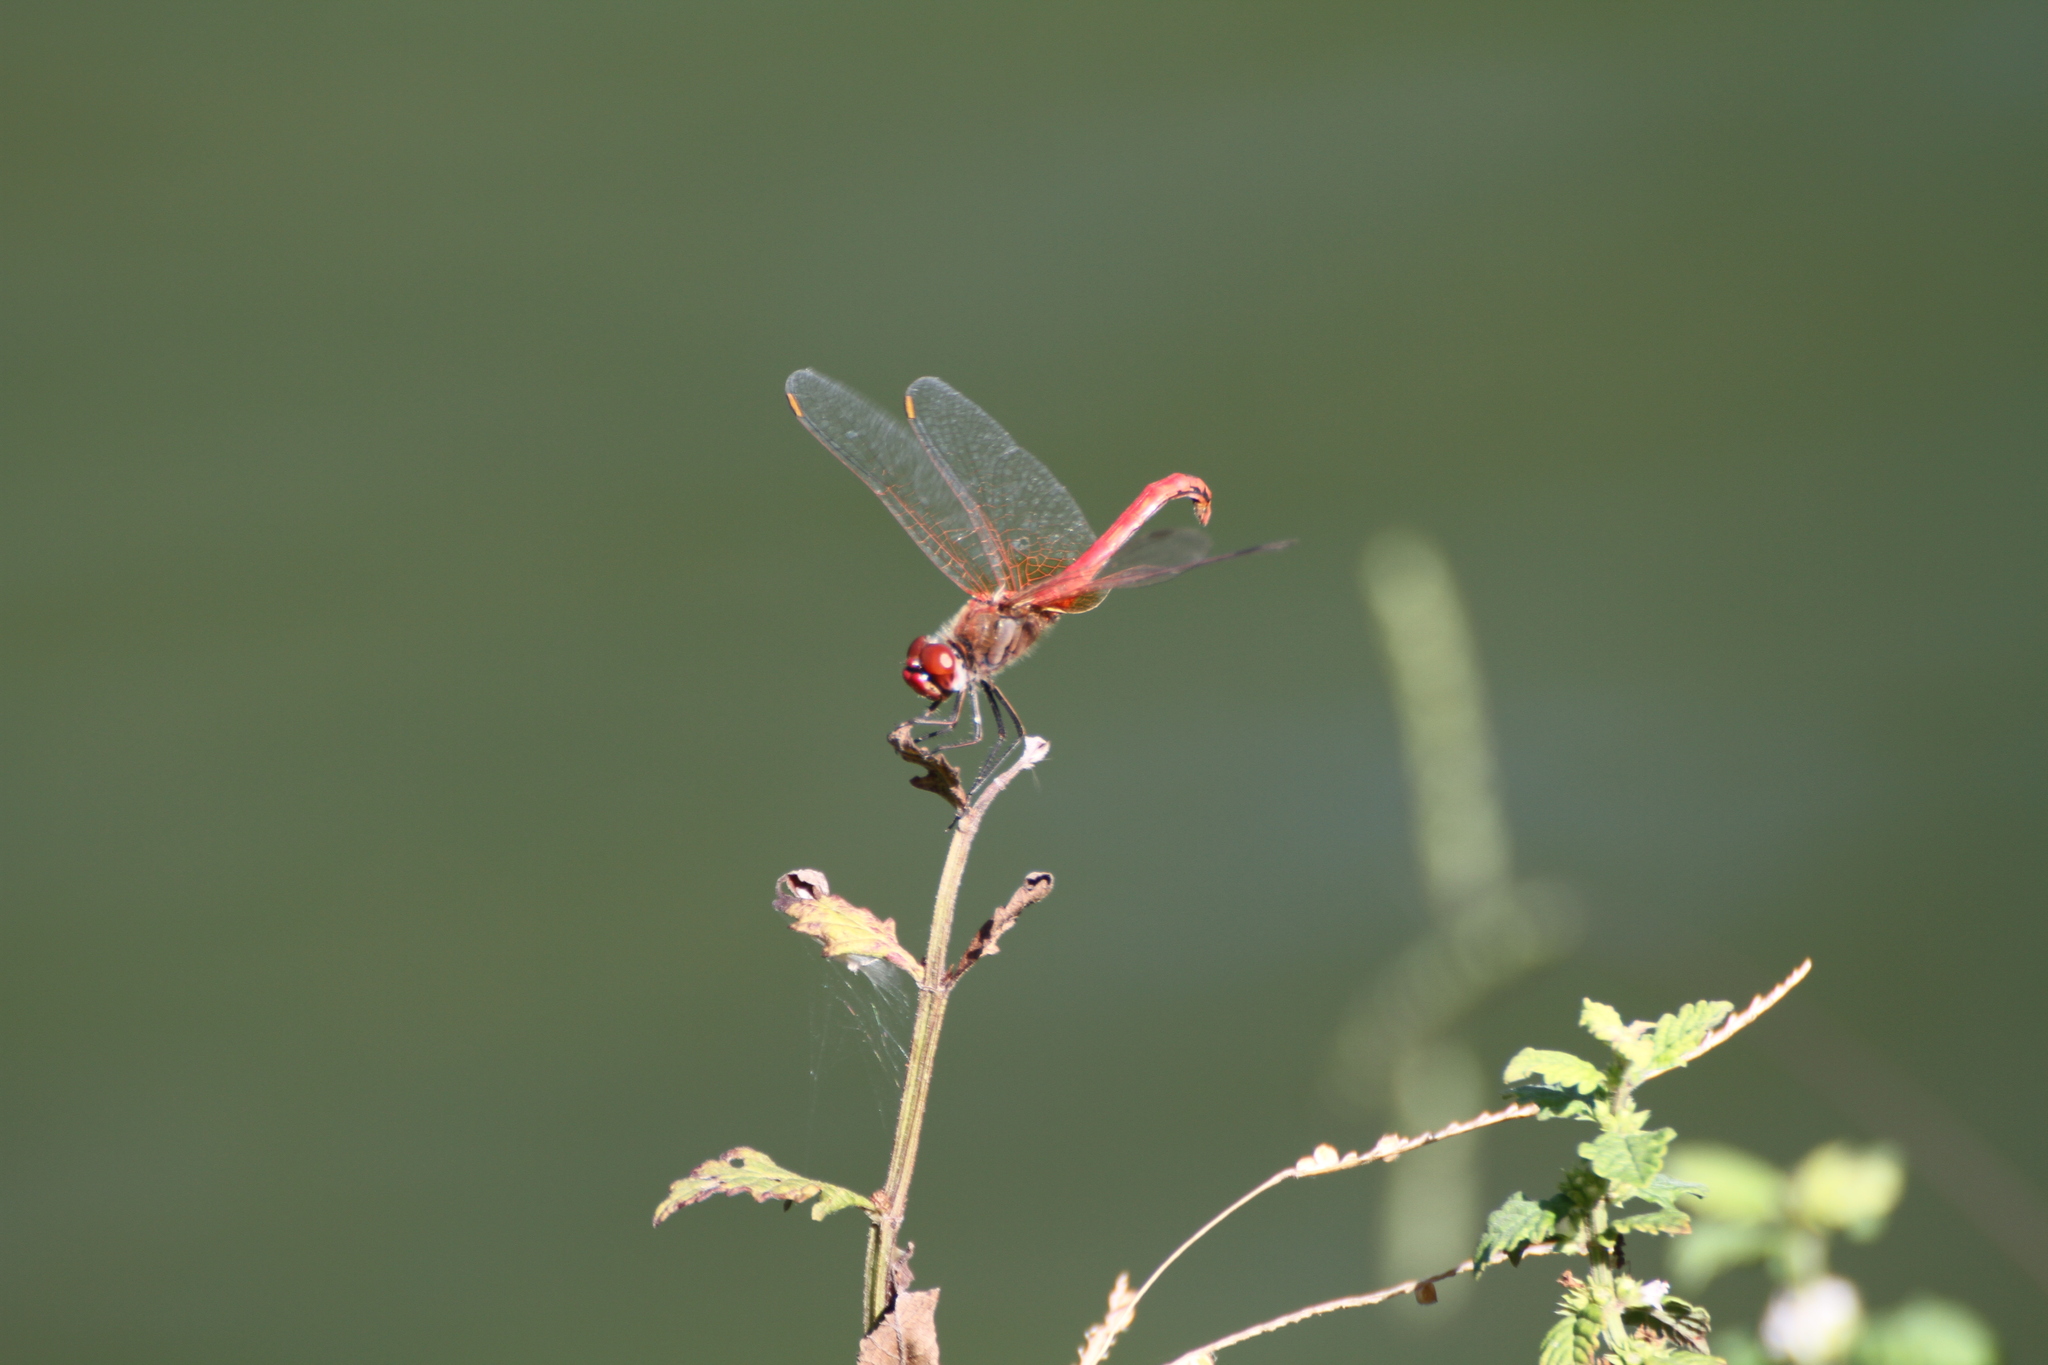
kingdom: Animalia
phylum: Arthropoda
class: Insecta
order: Odonata
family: Libellulidae
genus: Sympetrum
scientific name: Sympetrum fonscolombii
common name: Red-veined darter
